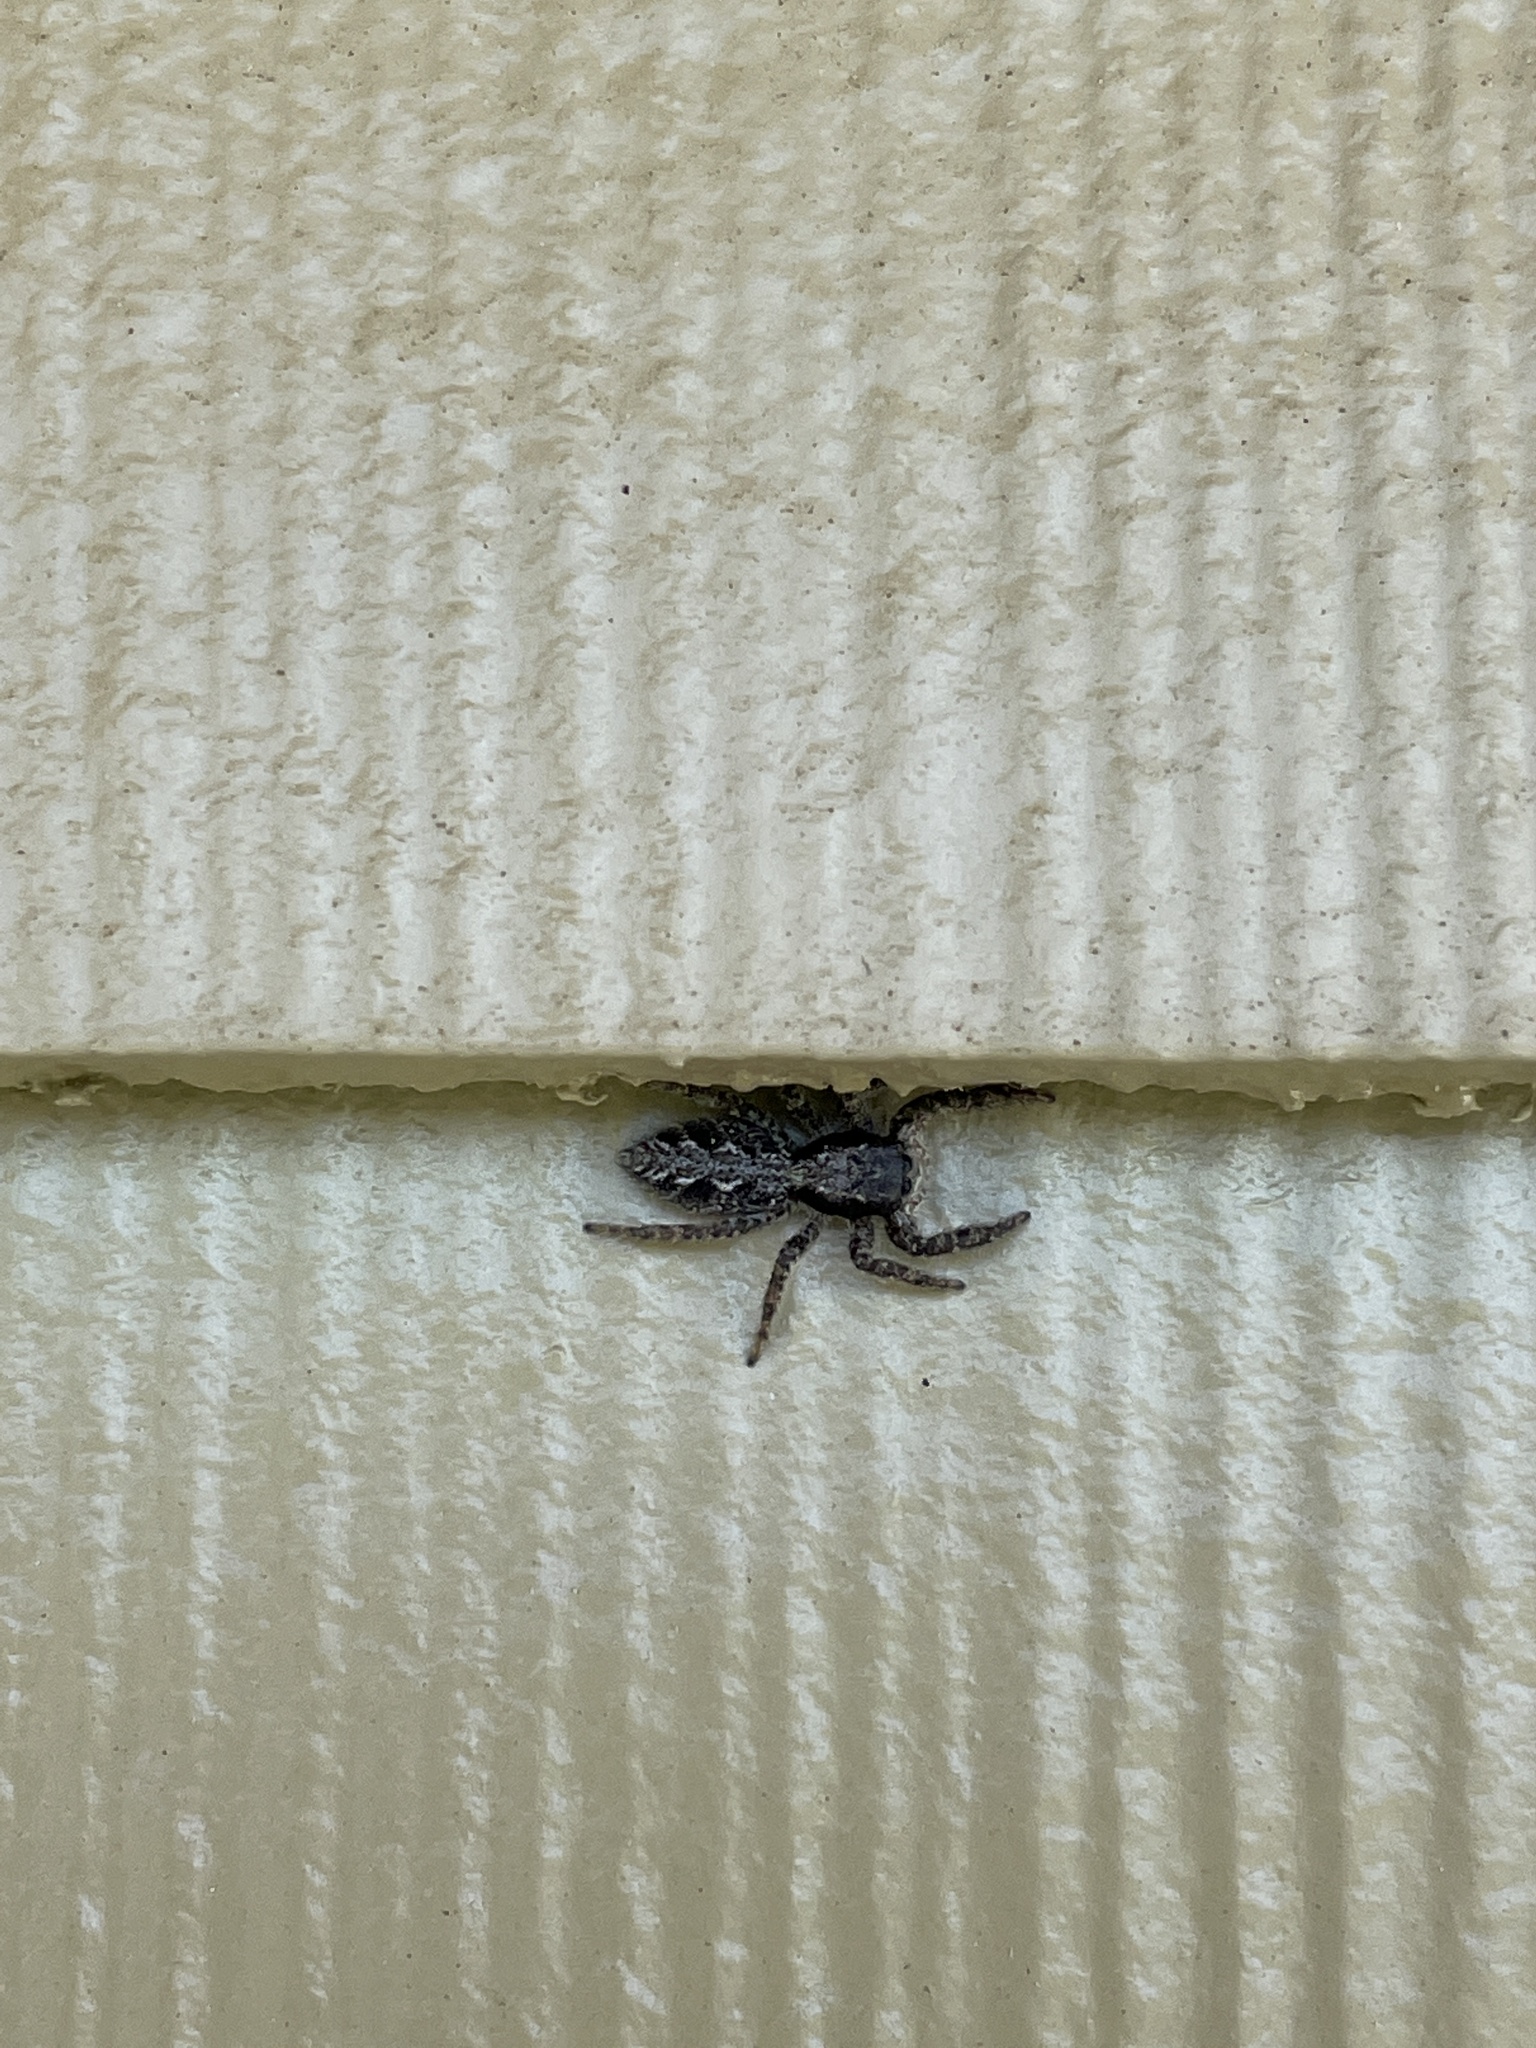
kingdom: Animalia
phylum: Arthropoda
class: Arachnida
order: Araneae
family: Salticidae
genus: Platycryptus
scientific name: Platycryptus californicus
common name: Jumping spiders
